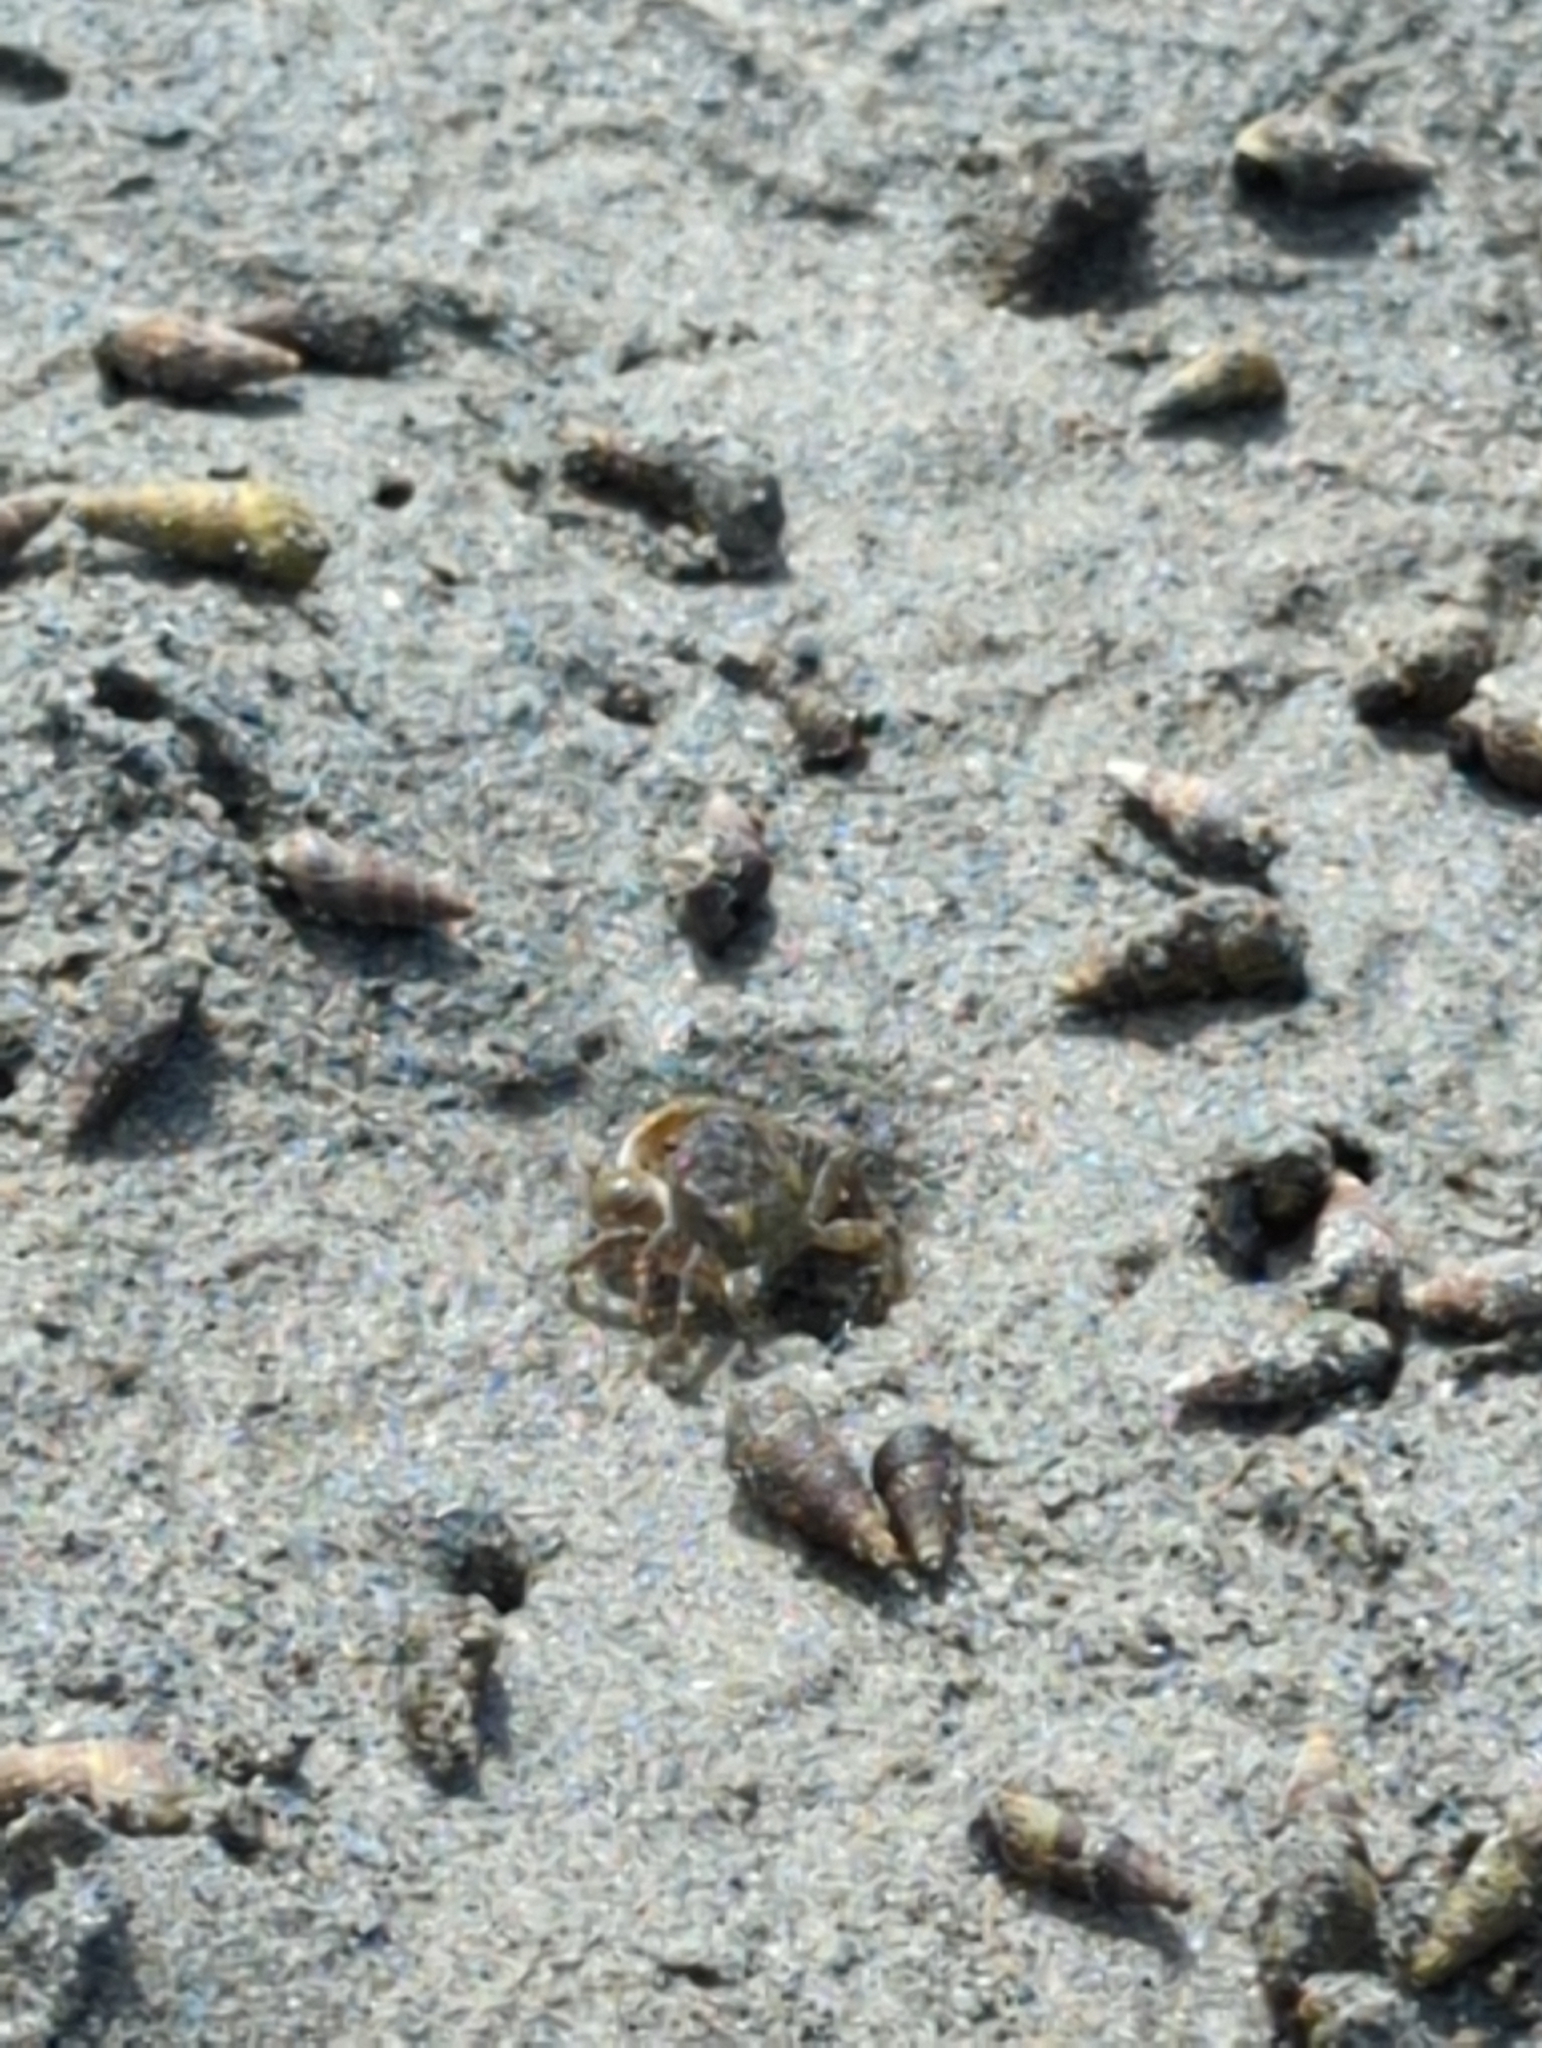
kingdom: Animalia
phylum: Arthropoda
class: Malacostraca
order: Decapoda
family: Varunidae
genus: Hemigrapsus
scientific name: Hemigrapsus oregonensis
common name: Yellow shore crab
